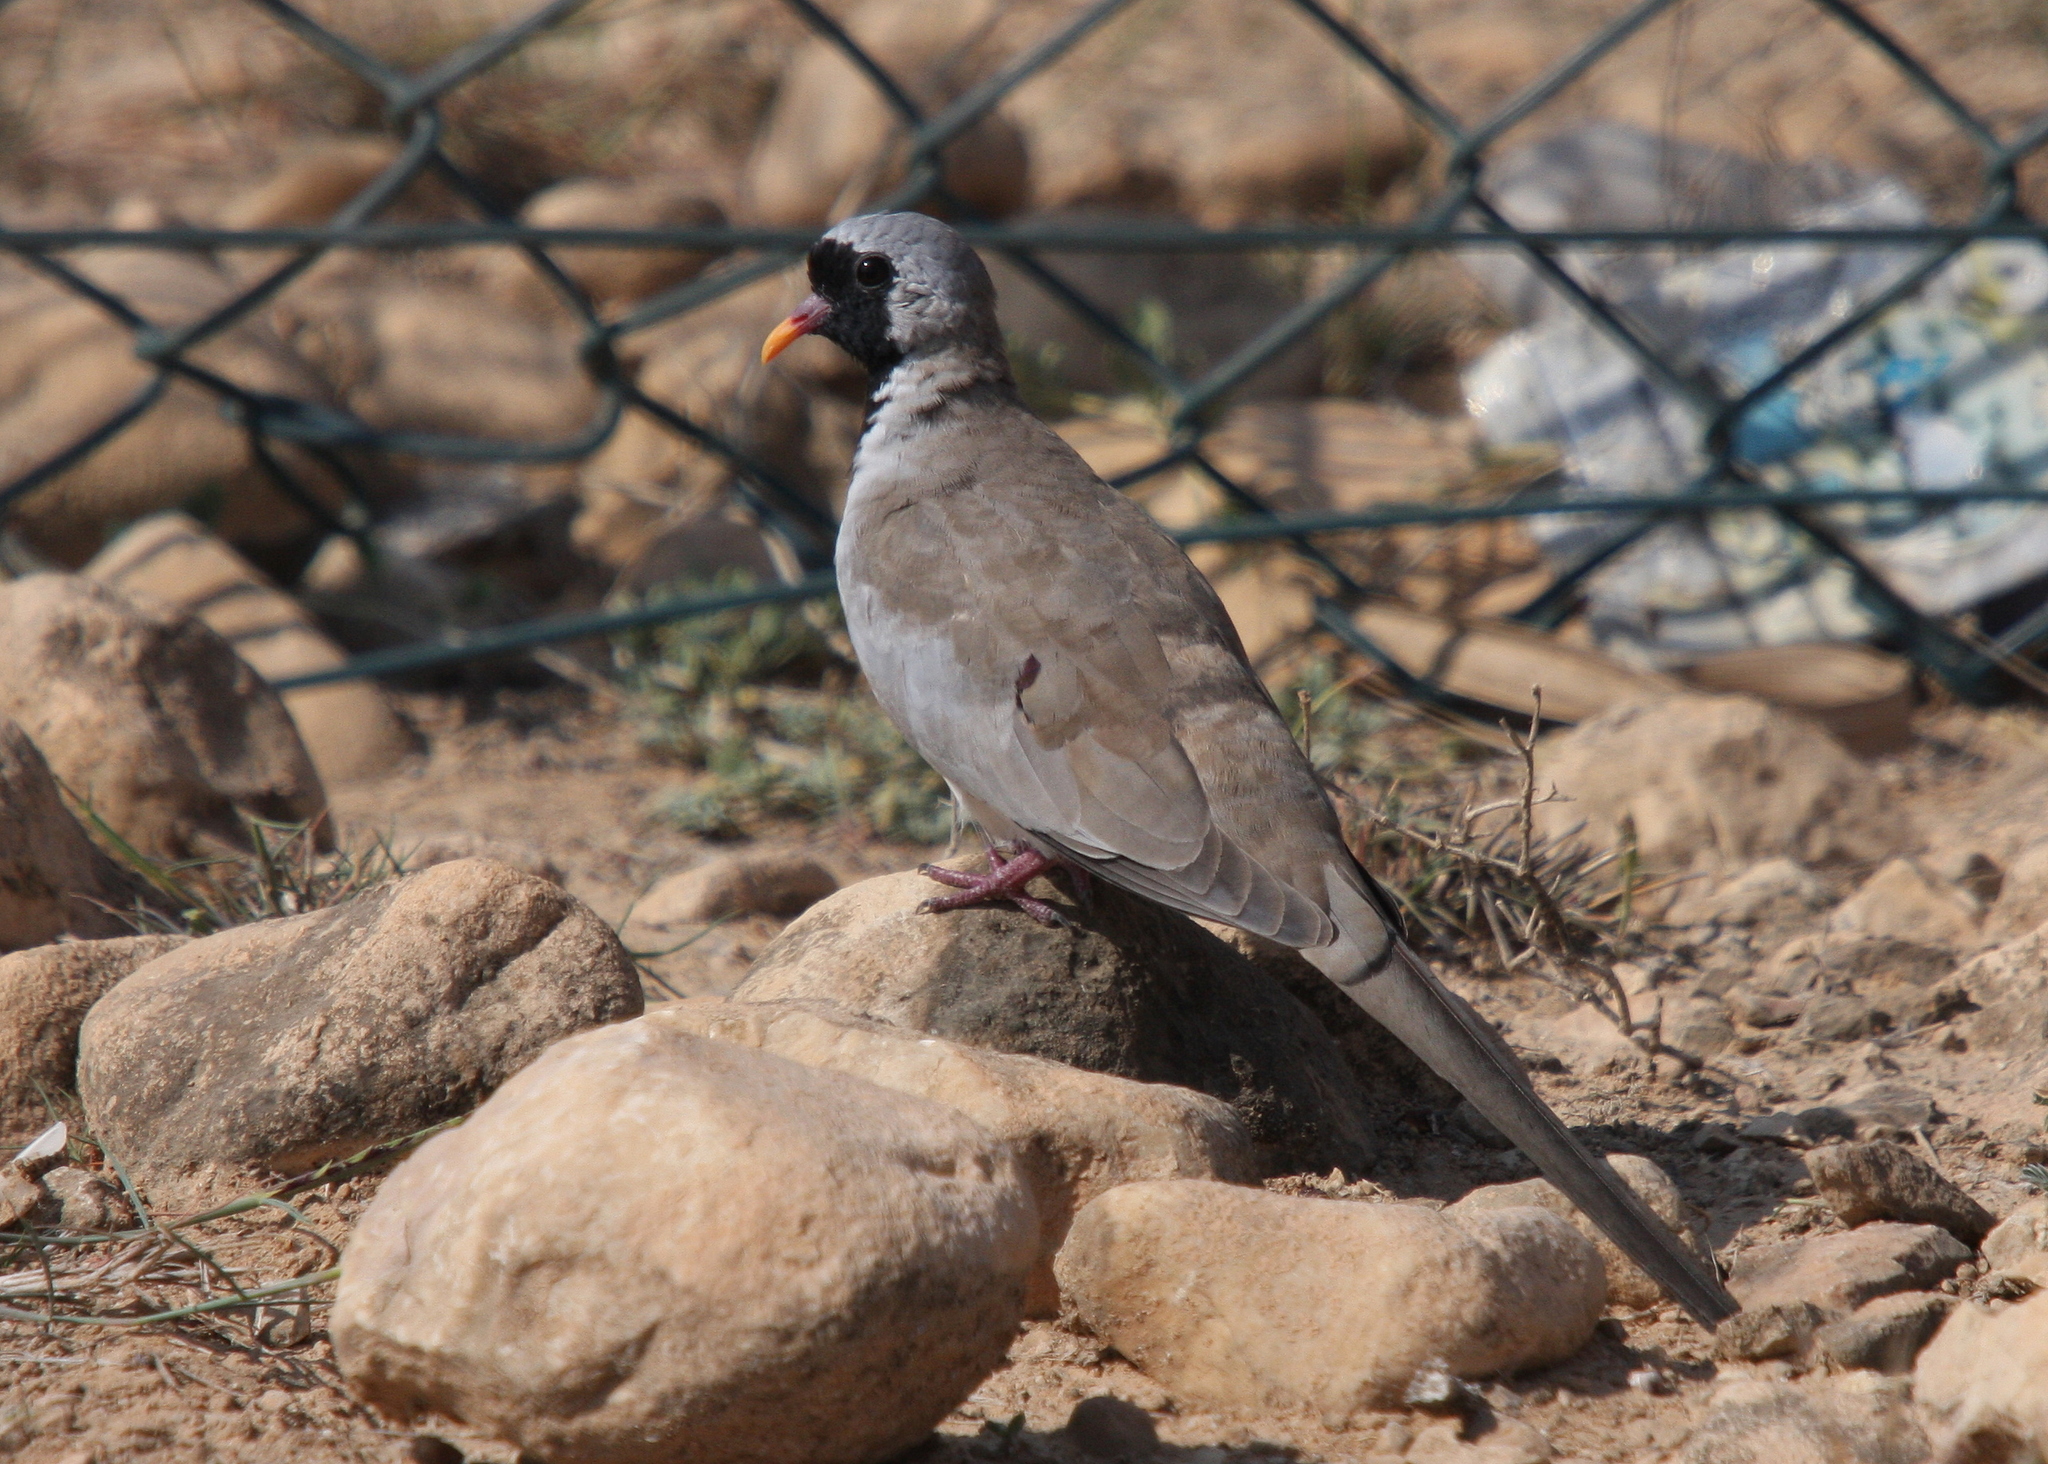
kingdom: Animalia
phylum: Chordata
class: Aves
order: Columbiformes
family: Columbidae
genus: Oena
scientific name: Oena capensis
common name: Namaqua dove
